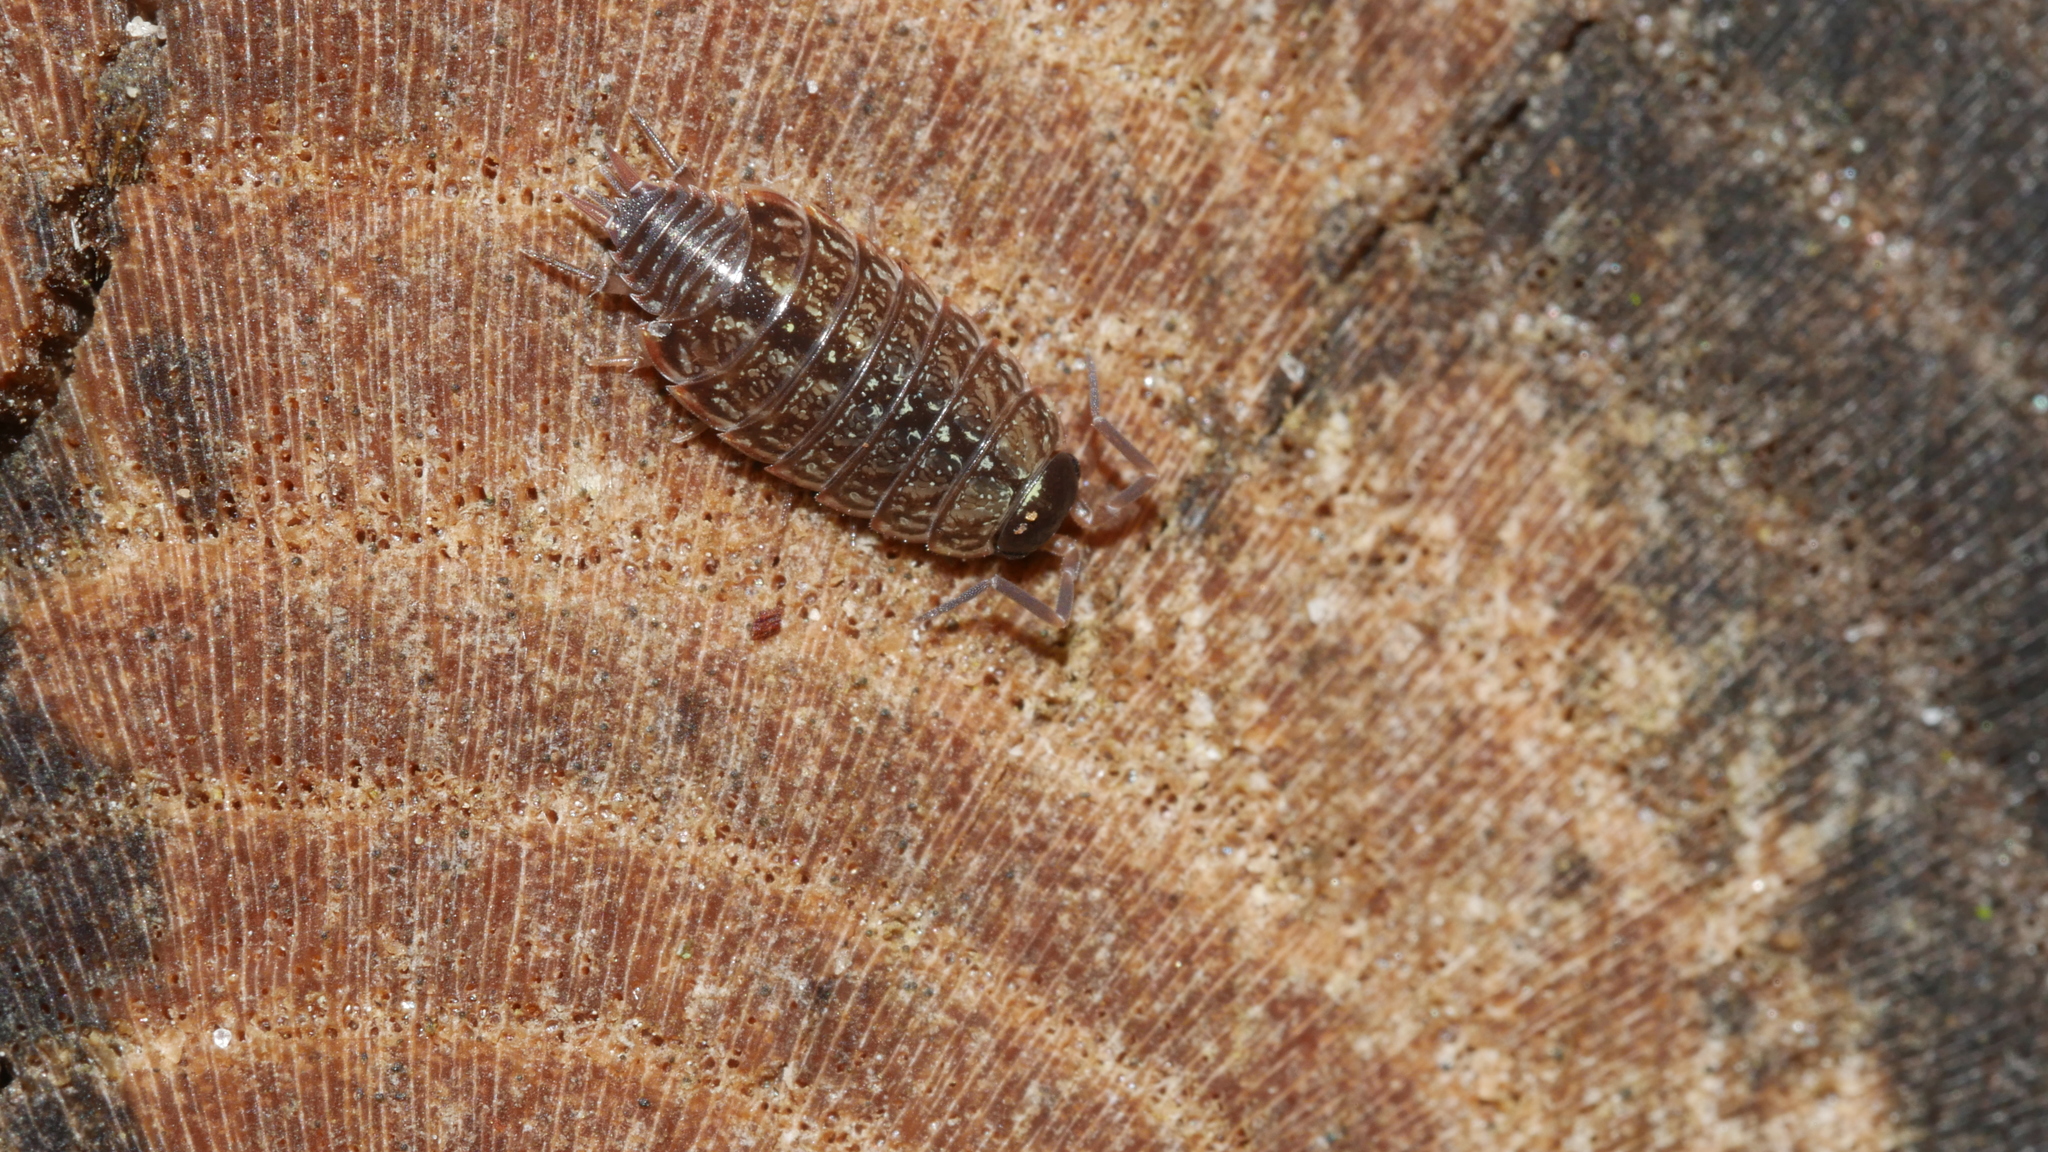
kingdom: Animalia
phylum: Arthropoda
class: Malacostraca
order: Isopoda
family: Philosciidae
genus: Philoscia
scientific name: Philoscia muscorum
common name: Common striped woodlouse
